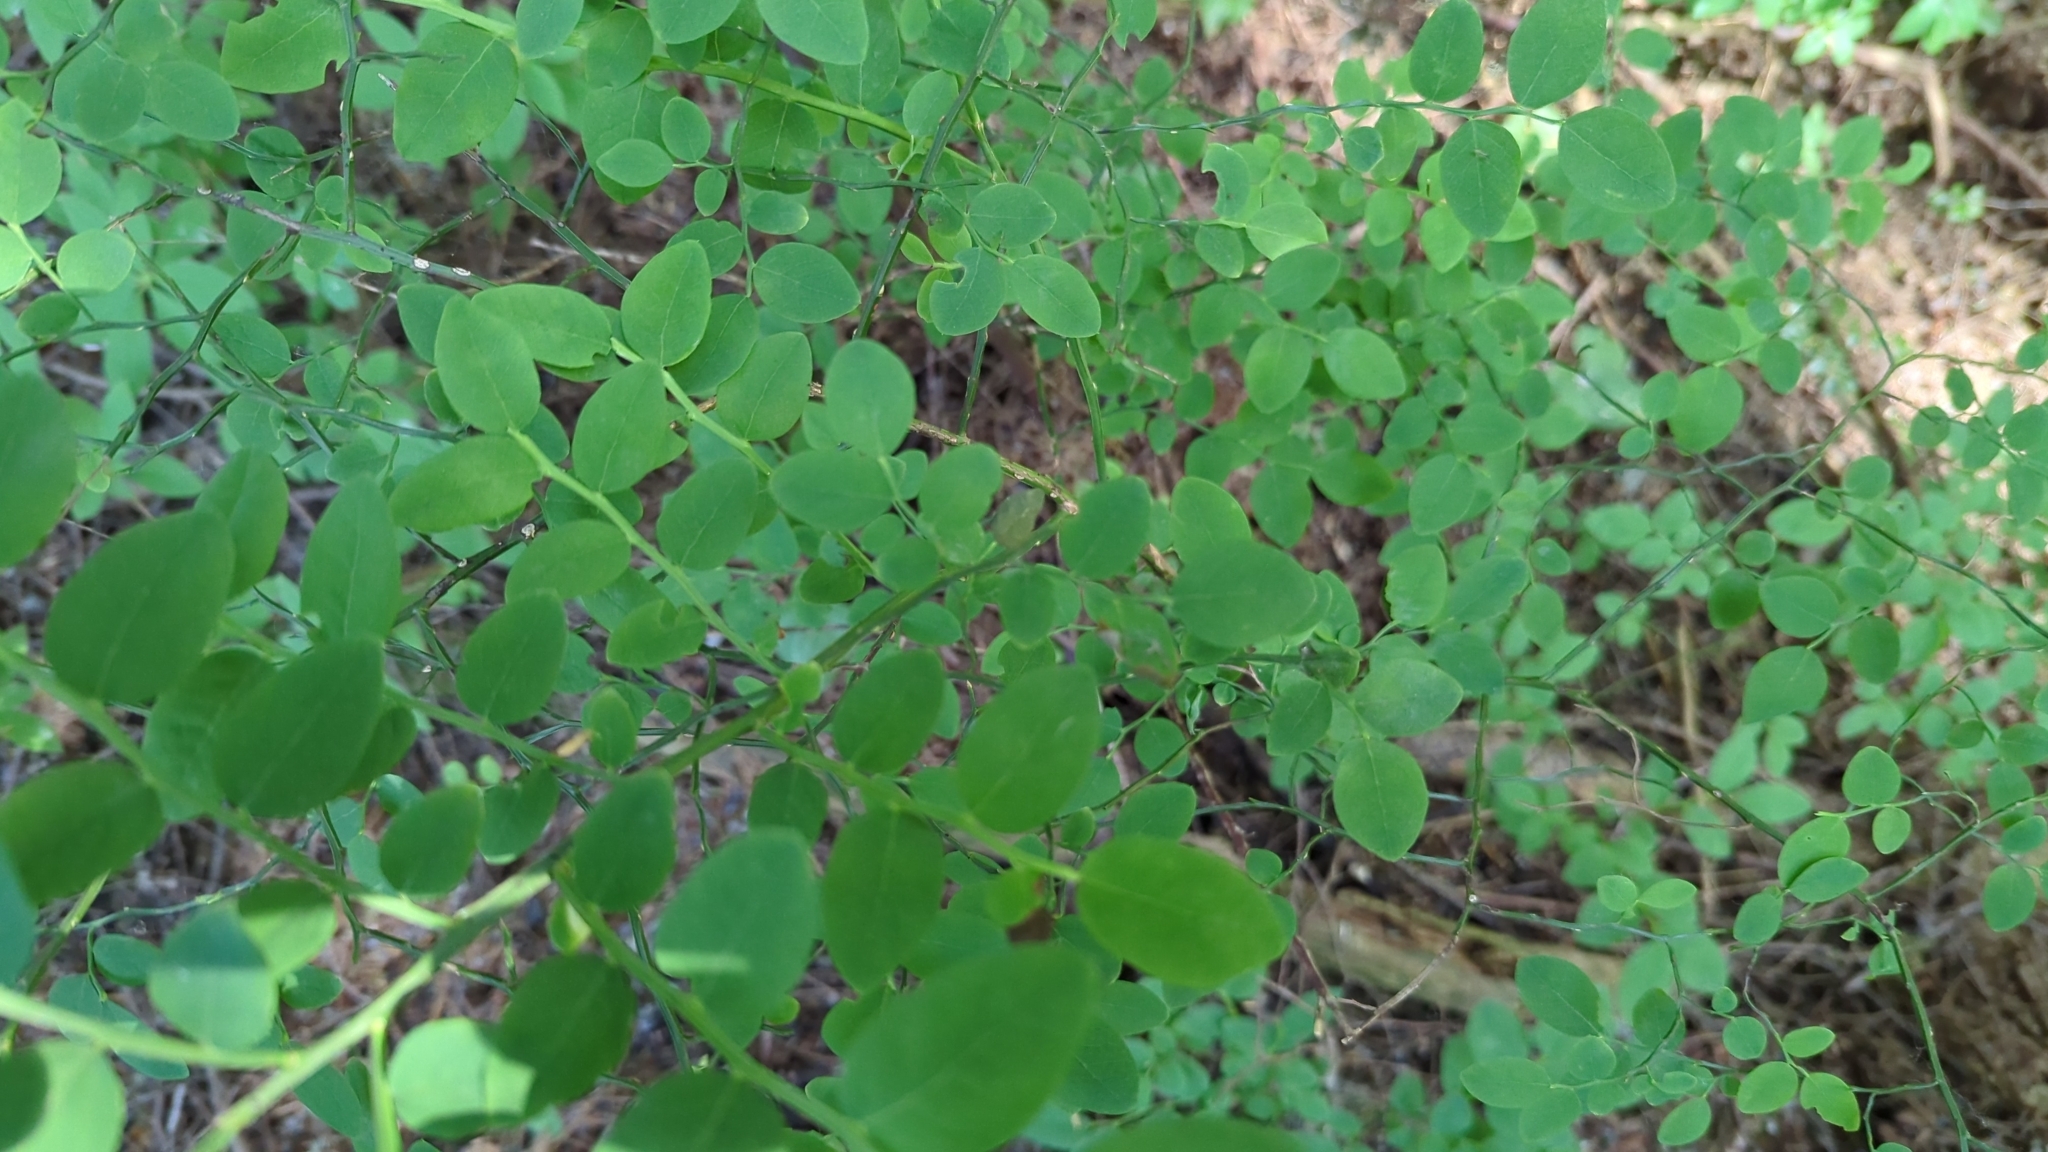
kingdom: Plantae
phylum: Tracheophyta
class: Magnoliopsida
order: Ericales
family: Ericaceae
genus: Vaccinium
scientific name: Vaccinium parvifolium
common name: Red-huckleberry
